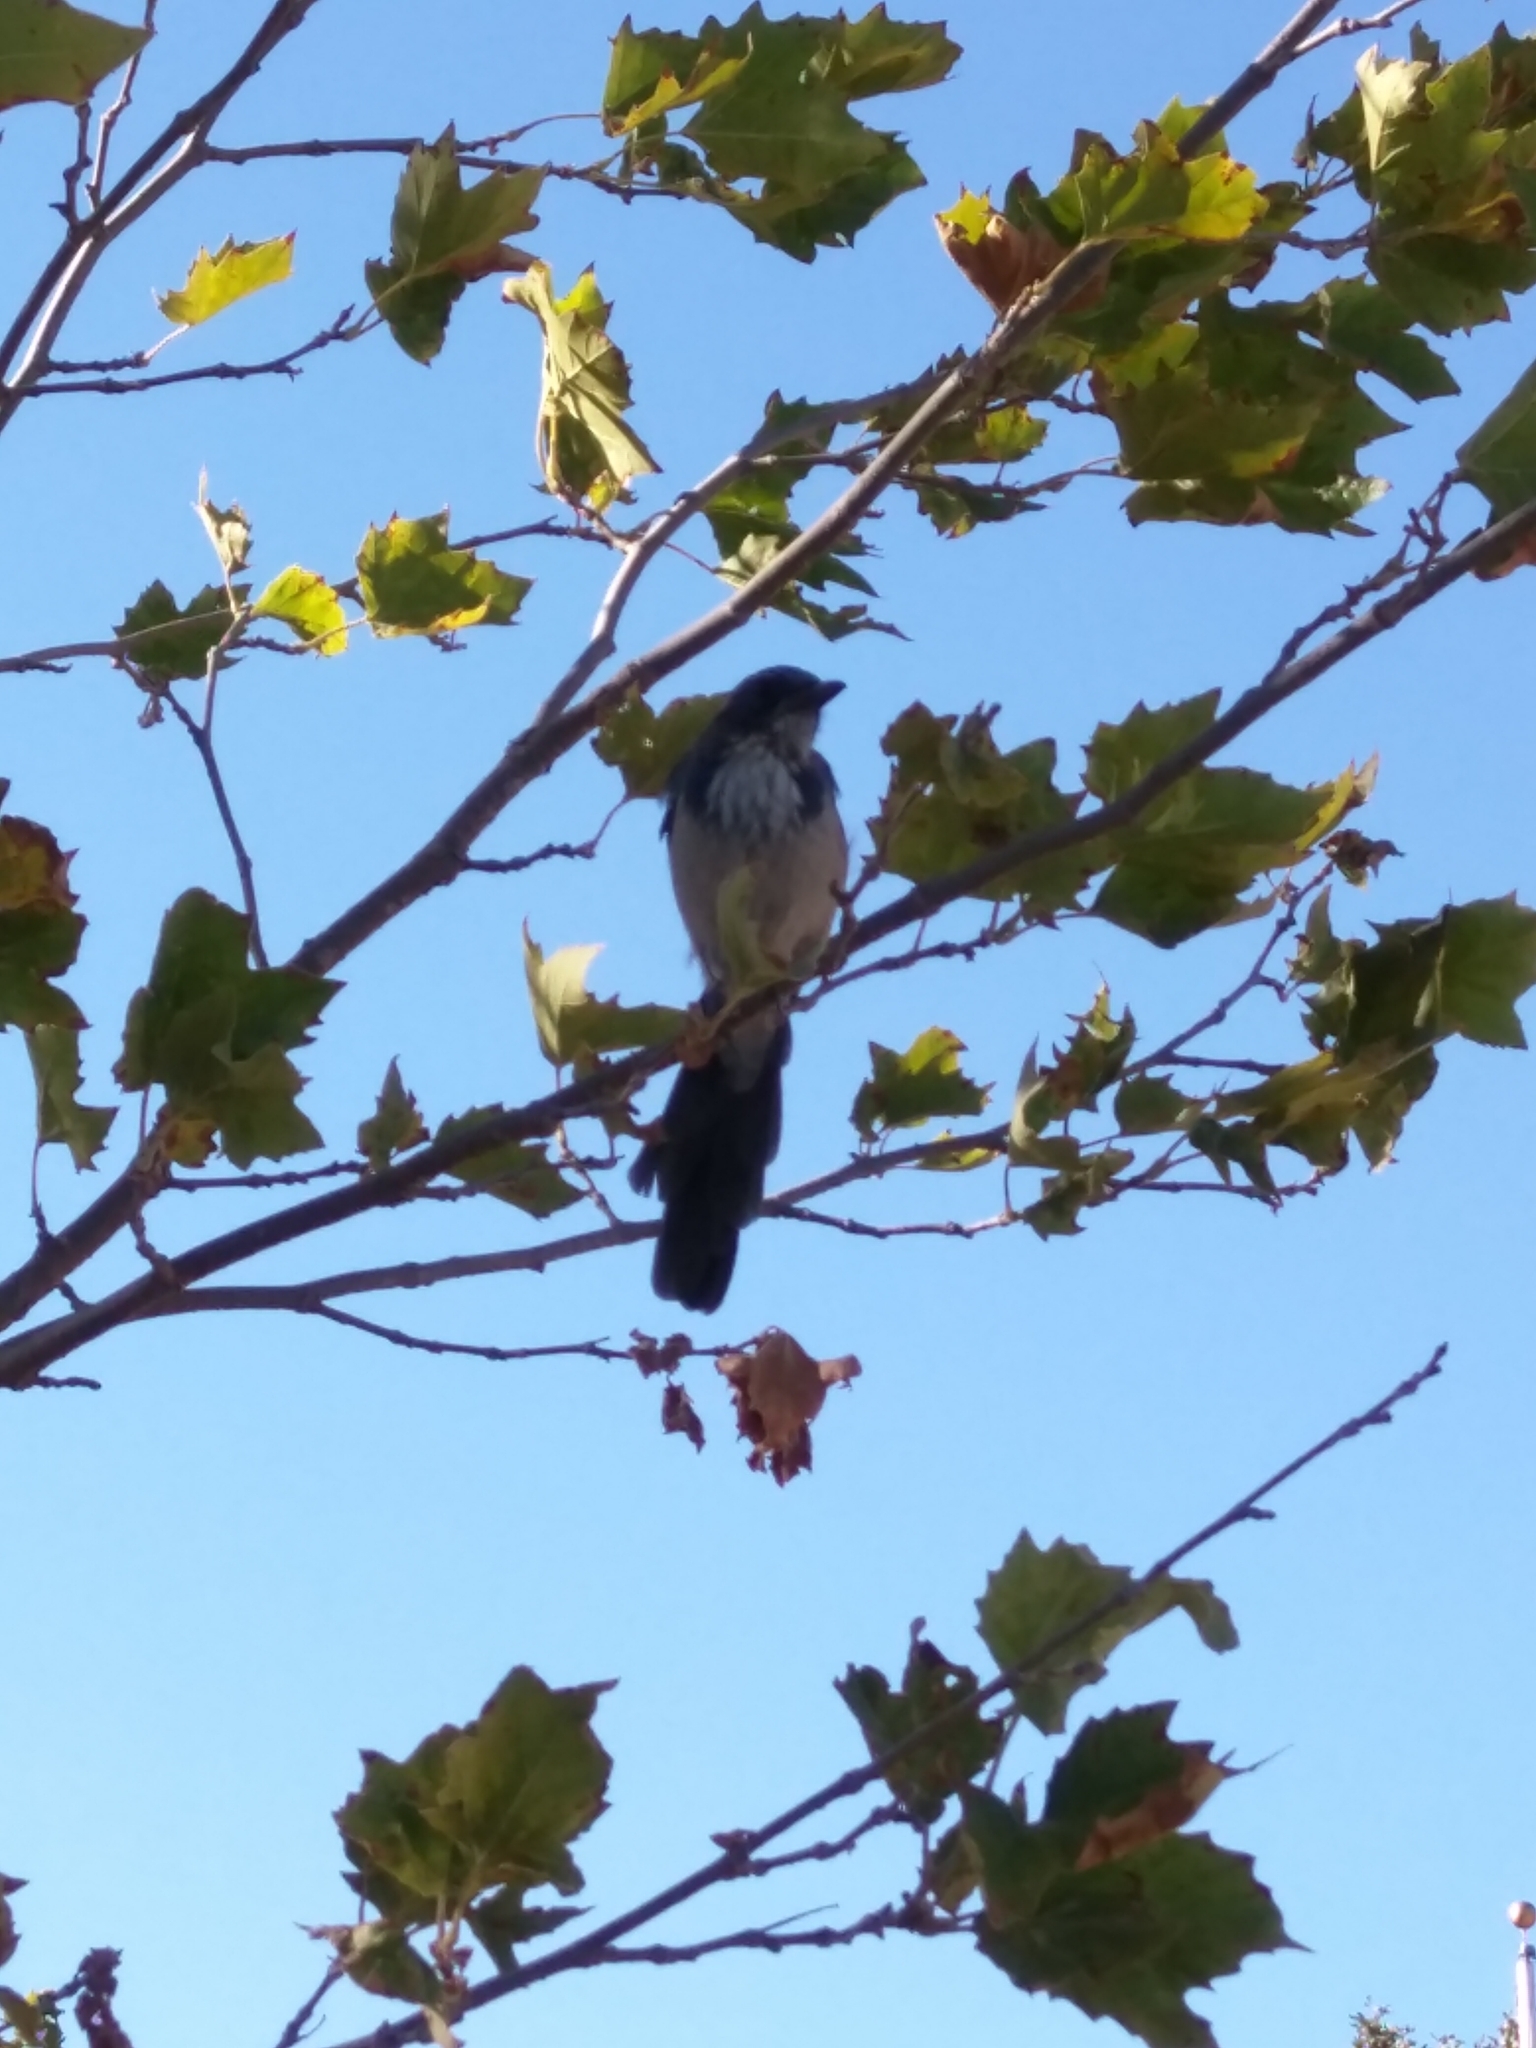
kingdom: Animalia
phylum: Chordata
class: Aves
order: Passeriformes
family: Corvidae
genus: Aphelocoma
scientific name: Aphelocoma californica
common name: California scrub-jay
